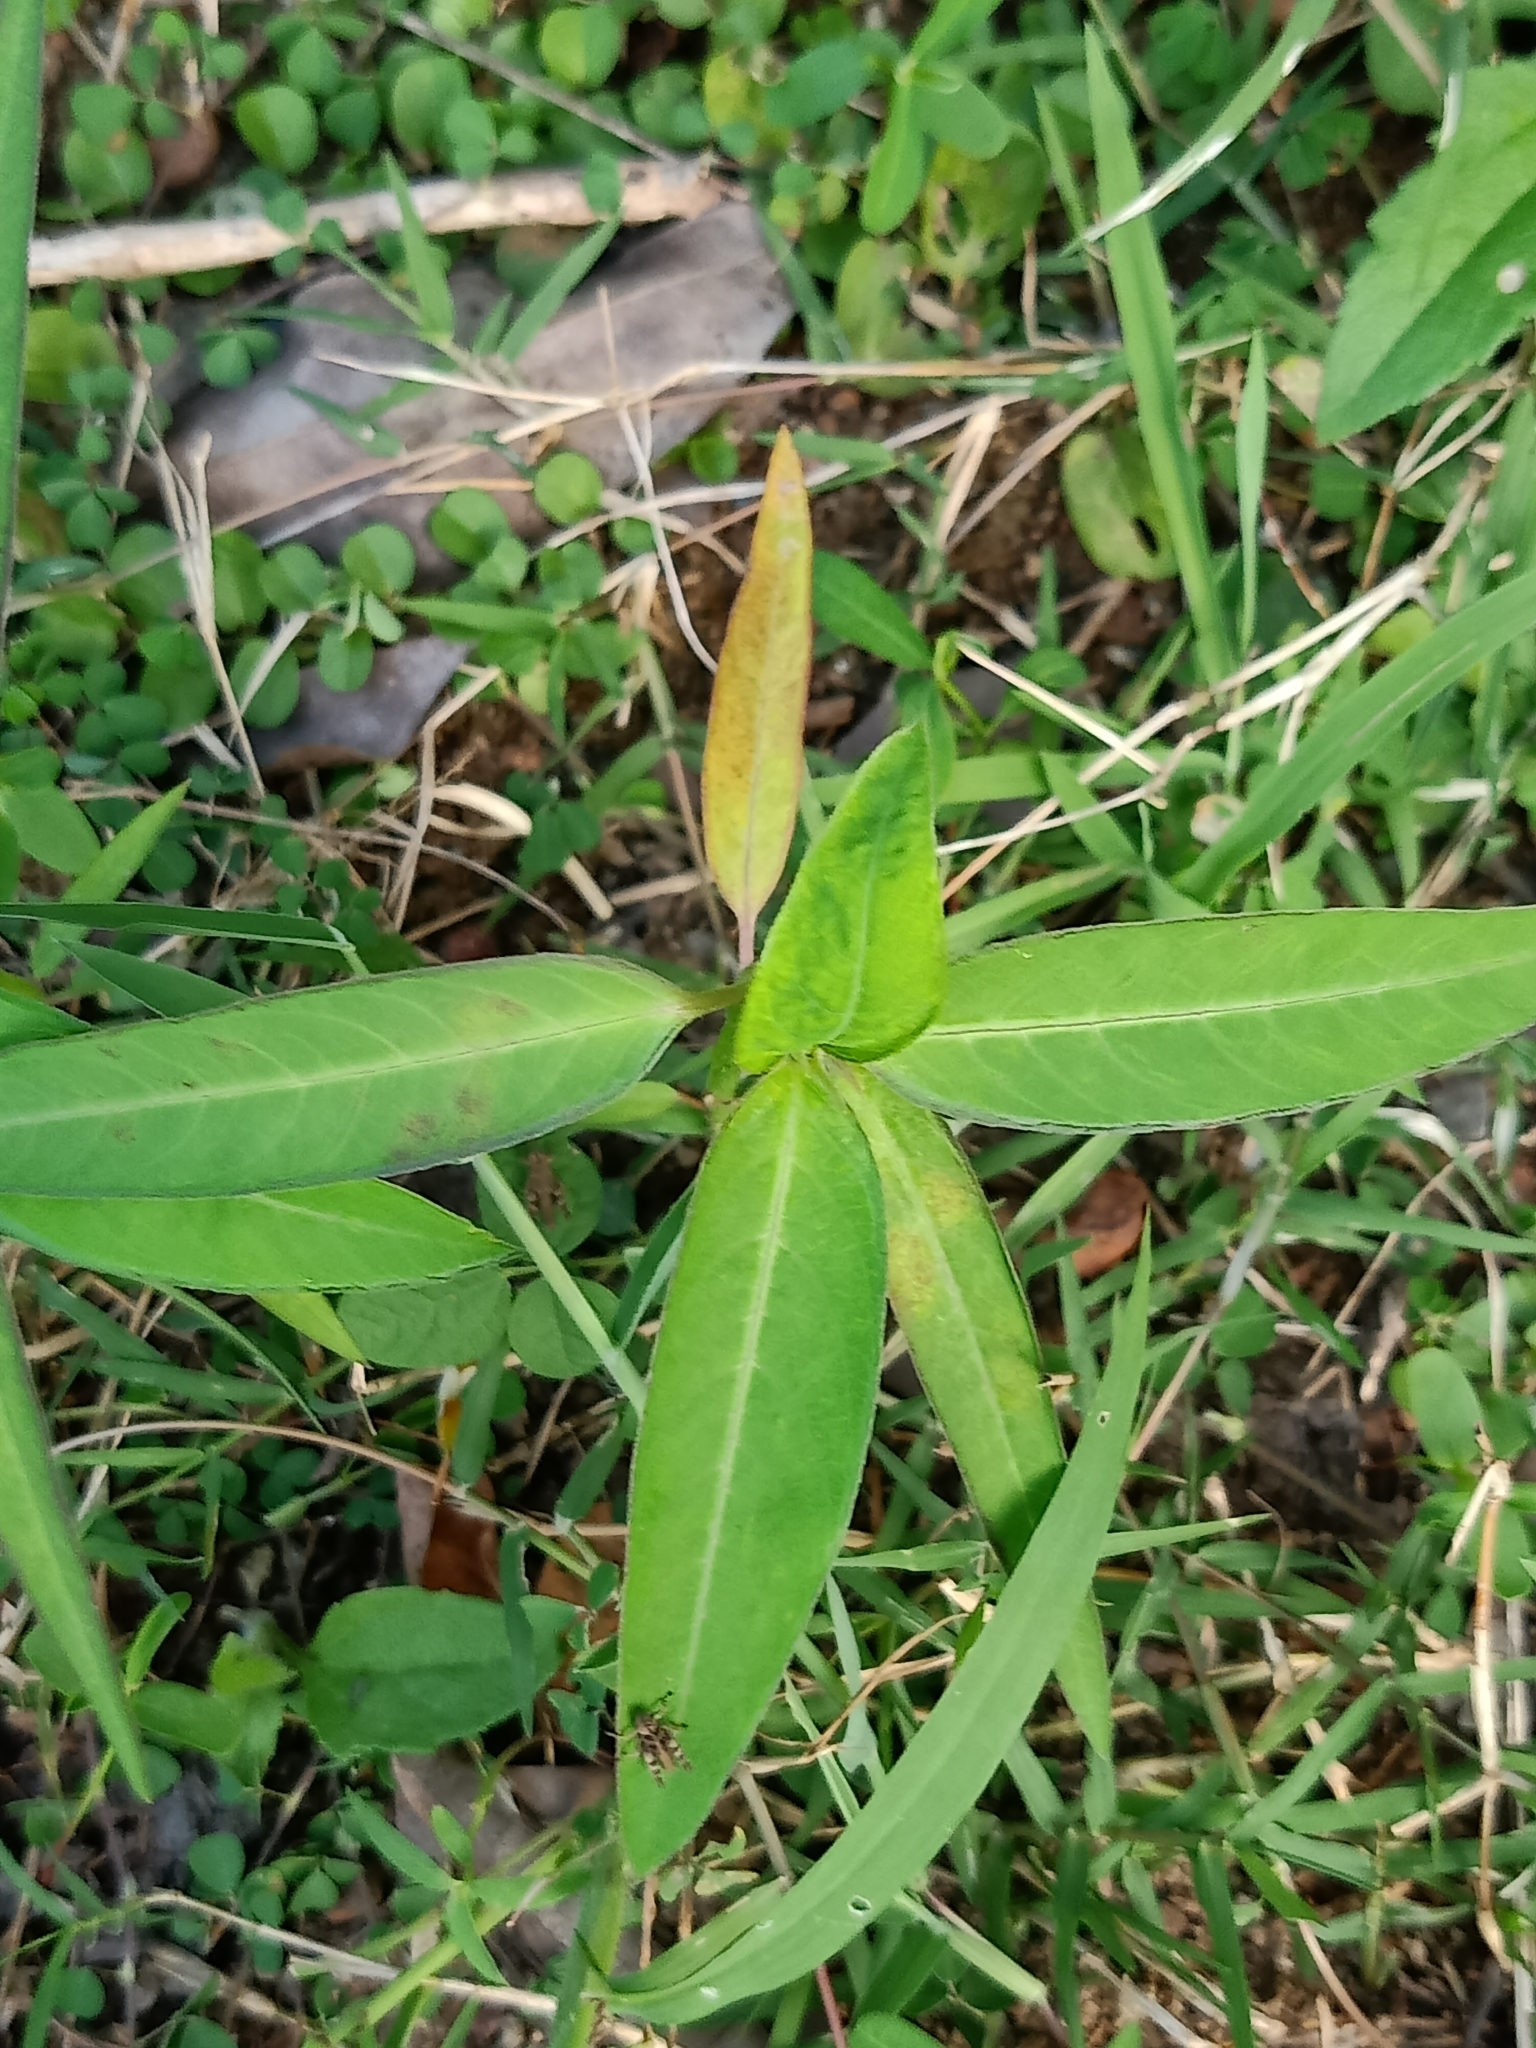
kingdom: Plantae
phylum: Tracheophyta
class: Magnoliopsida
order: Malpighiales
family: Euphorbiaceae
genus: Euphorbia
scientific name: Euphorbia heterophylla
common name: Mexican fireplant
